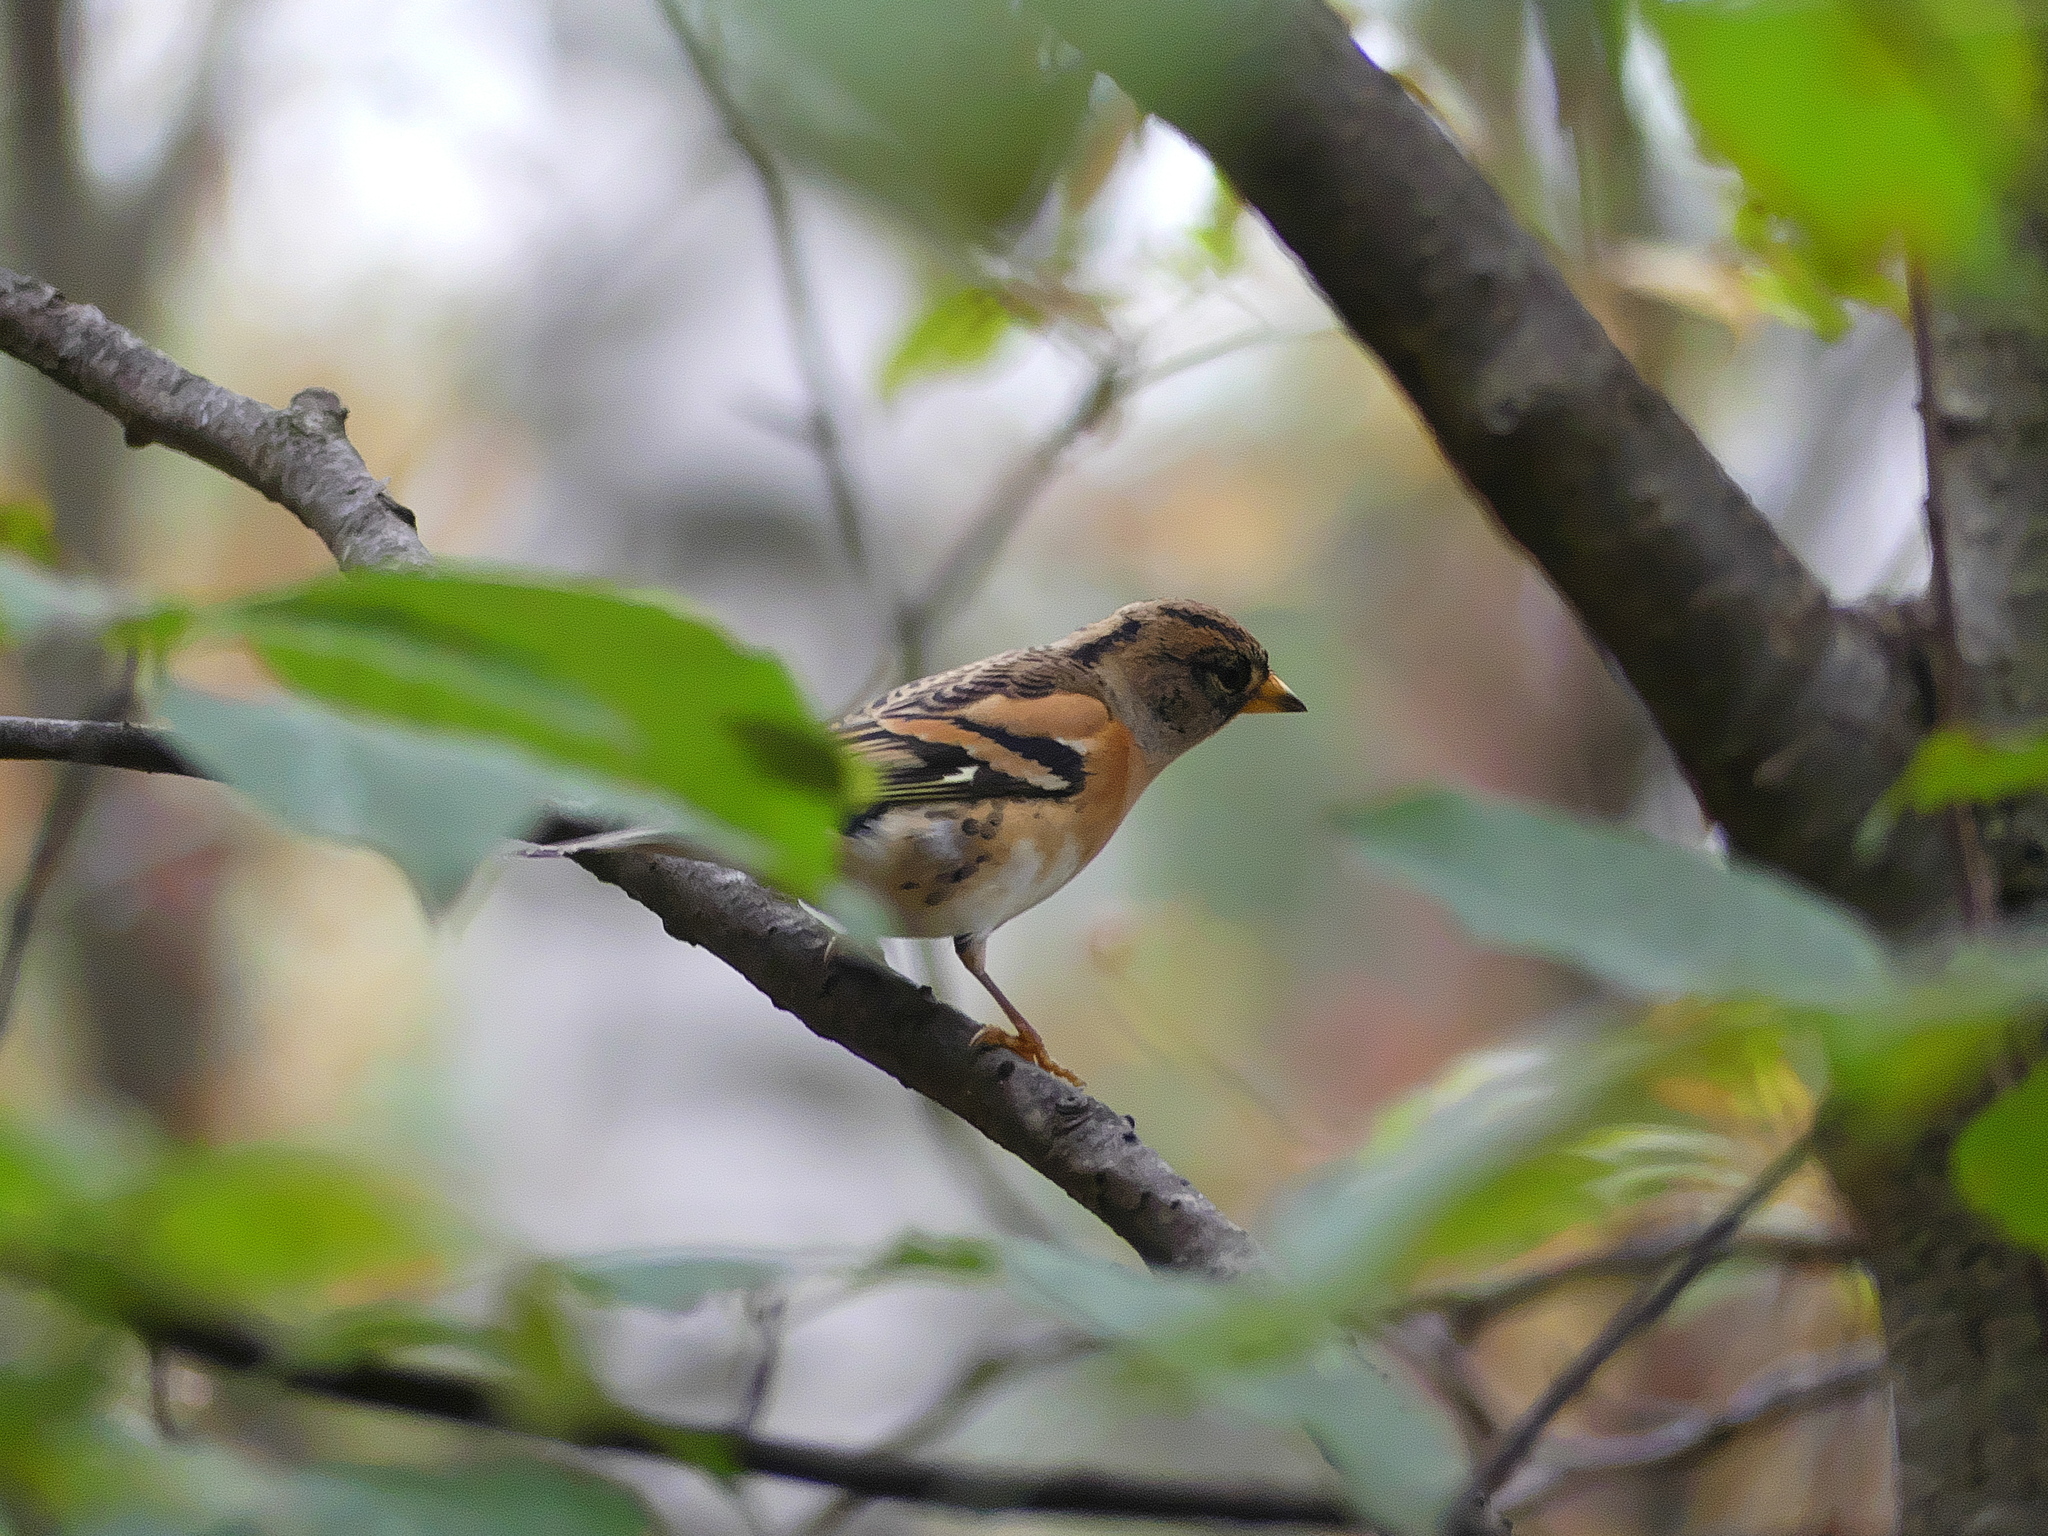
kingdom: Animalia
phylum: Chordata
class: Aves
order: Passeriformes
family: Fringillidae
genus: Fringilla
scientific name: Fringilla montifringilla
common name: Brambling
